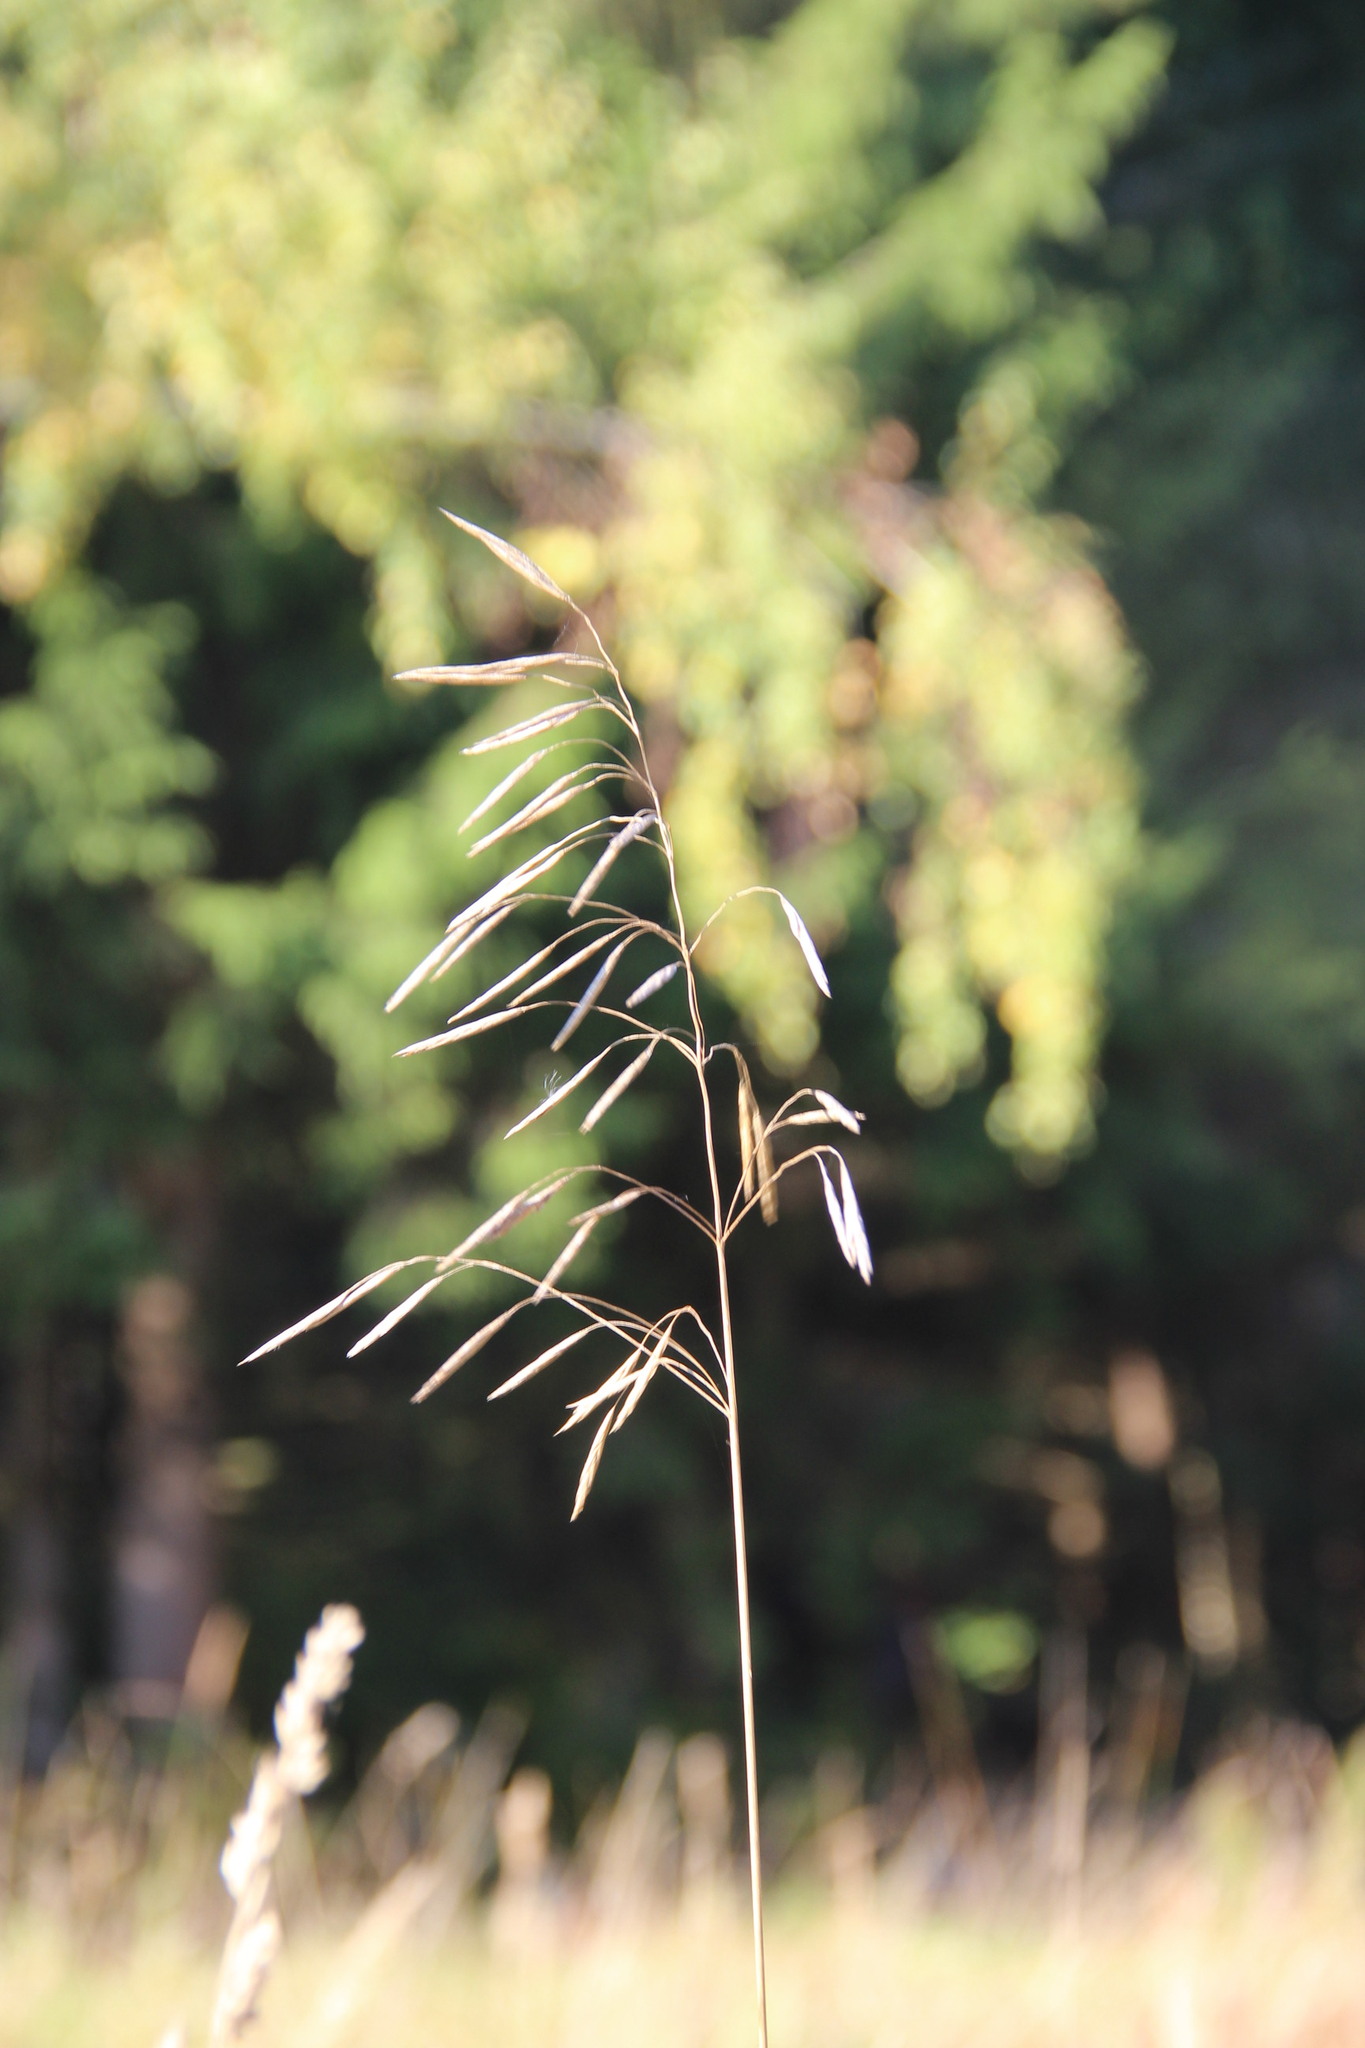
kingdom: Plantae
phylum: Tracheophyta
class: Liliopsida
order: Poales
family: Poaceae
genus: Bromus
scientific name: Bromus inermis
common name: Smooth brome
